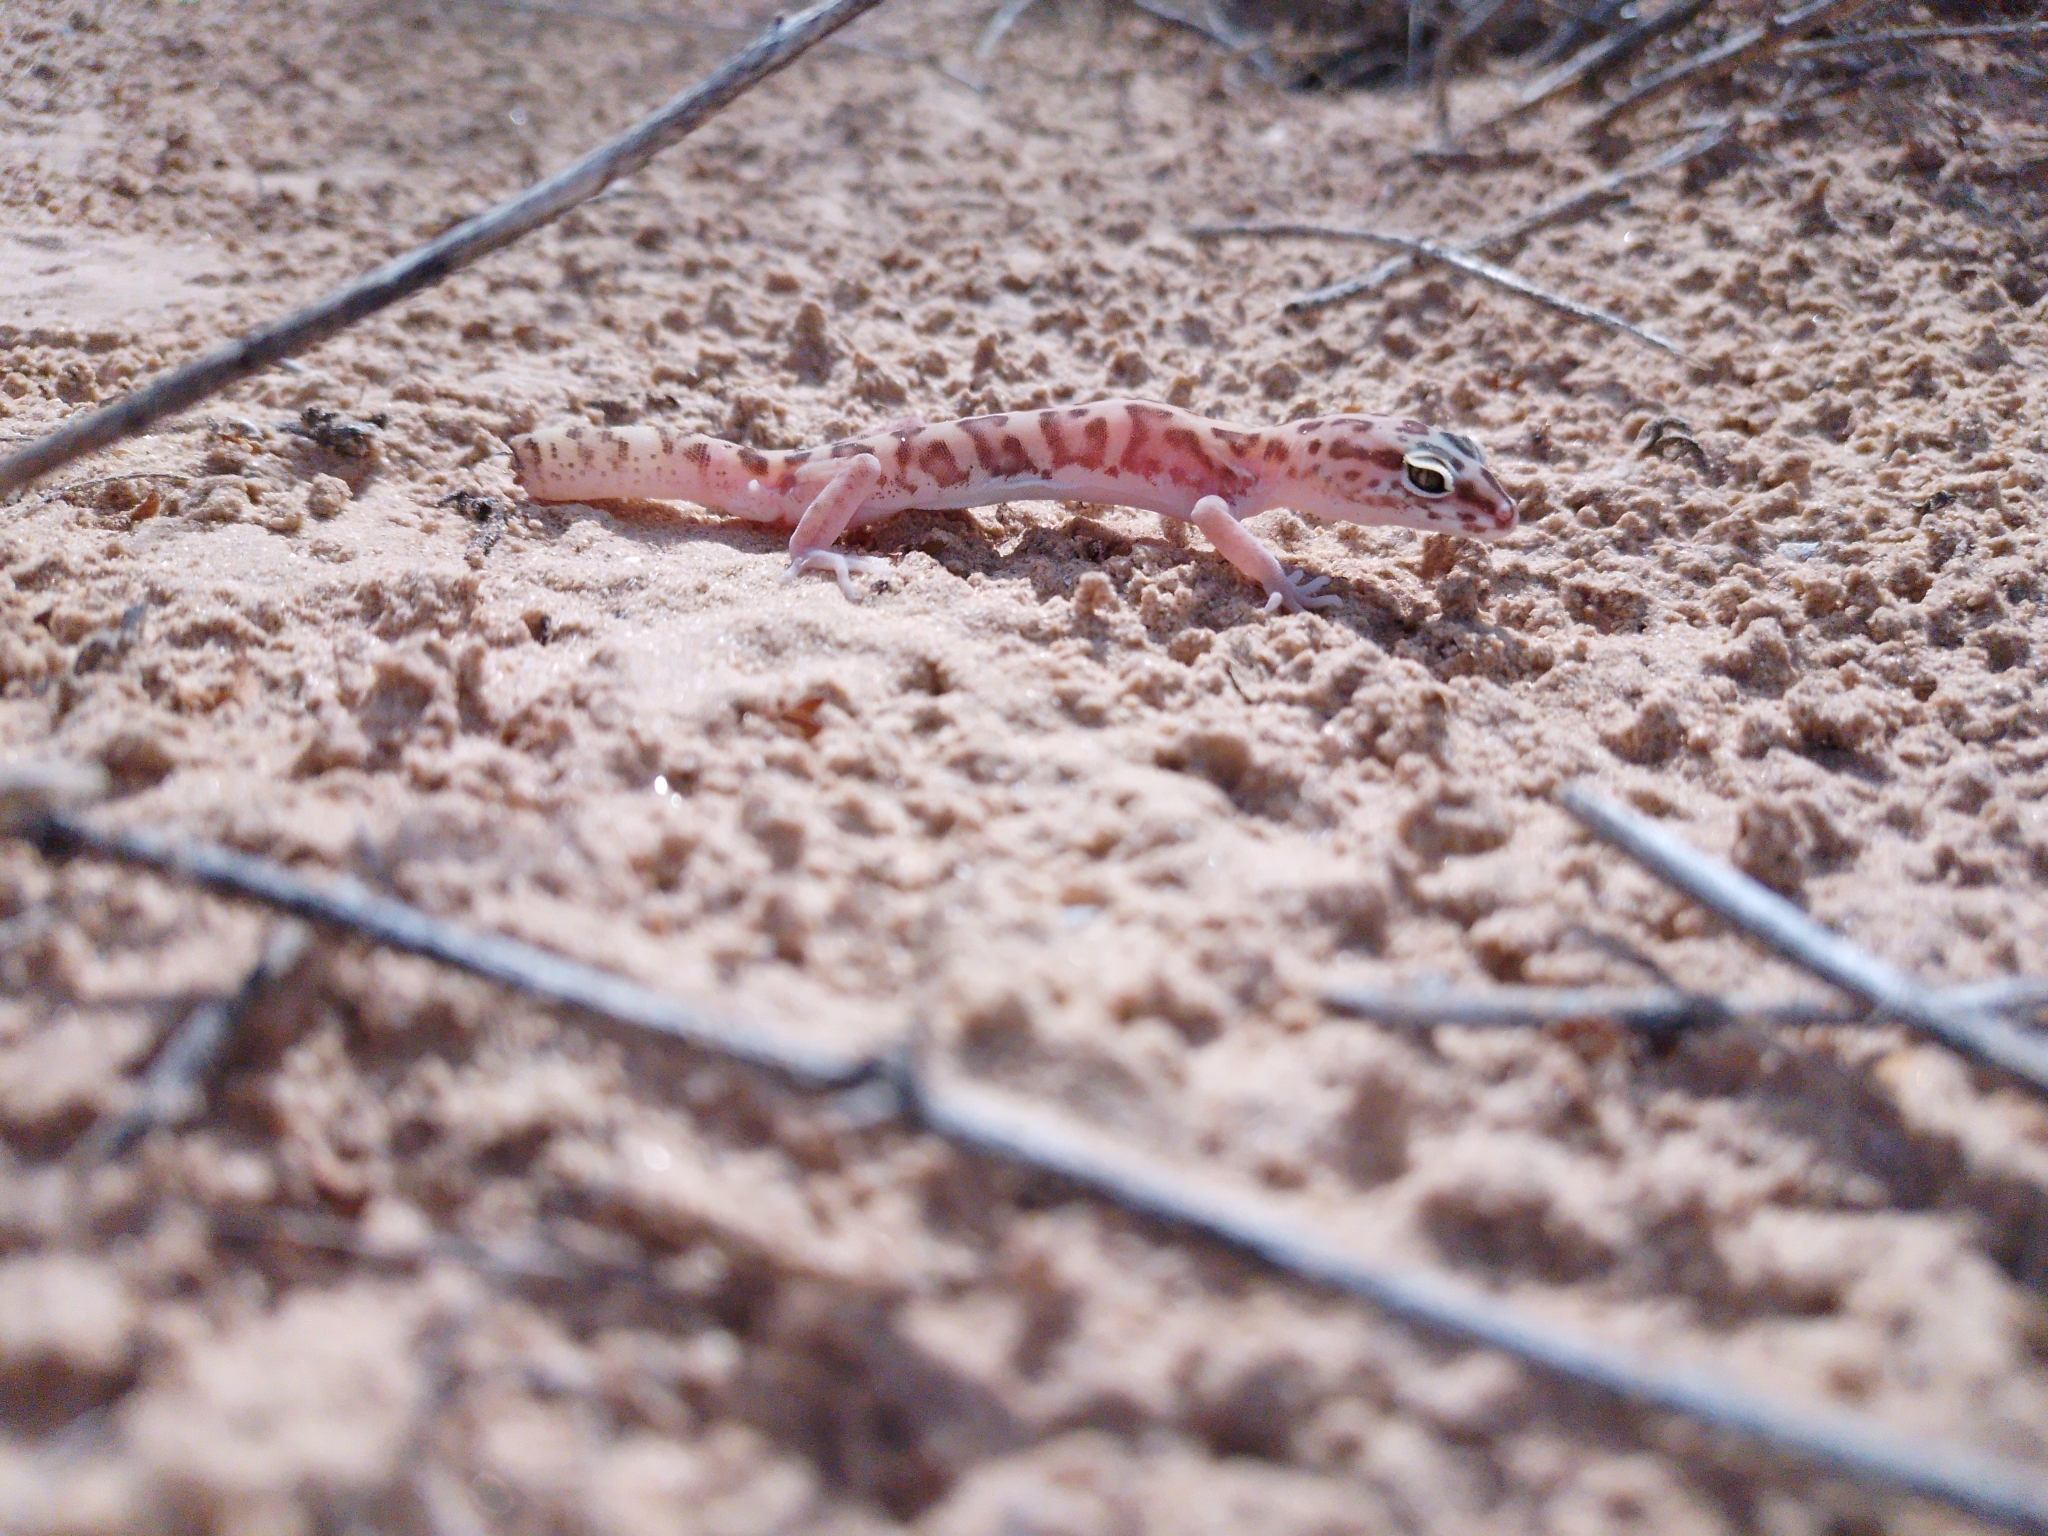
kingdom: Animalia
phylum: Chordata
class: Squamata
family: Eublepharidae
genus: Coleonyx
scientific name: Coleonyx variegatus
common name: Western banded gecko
